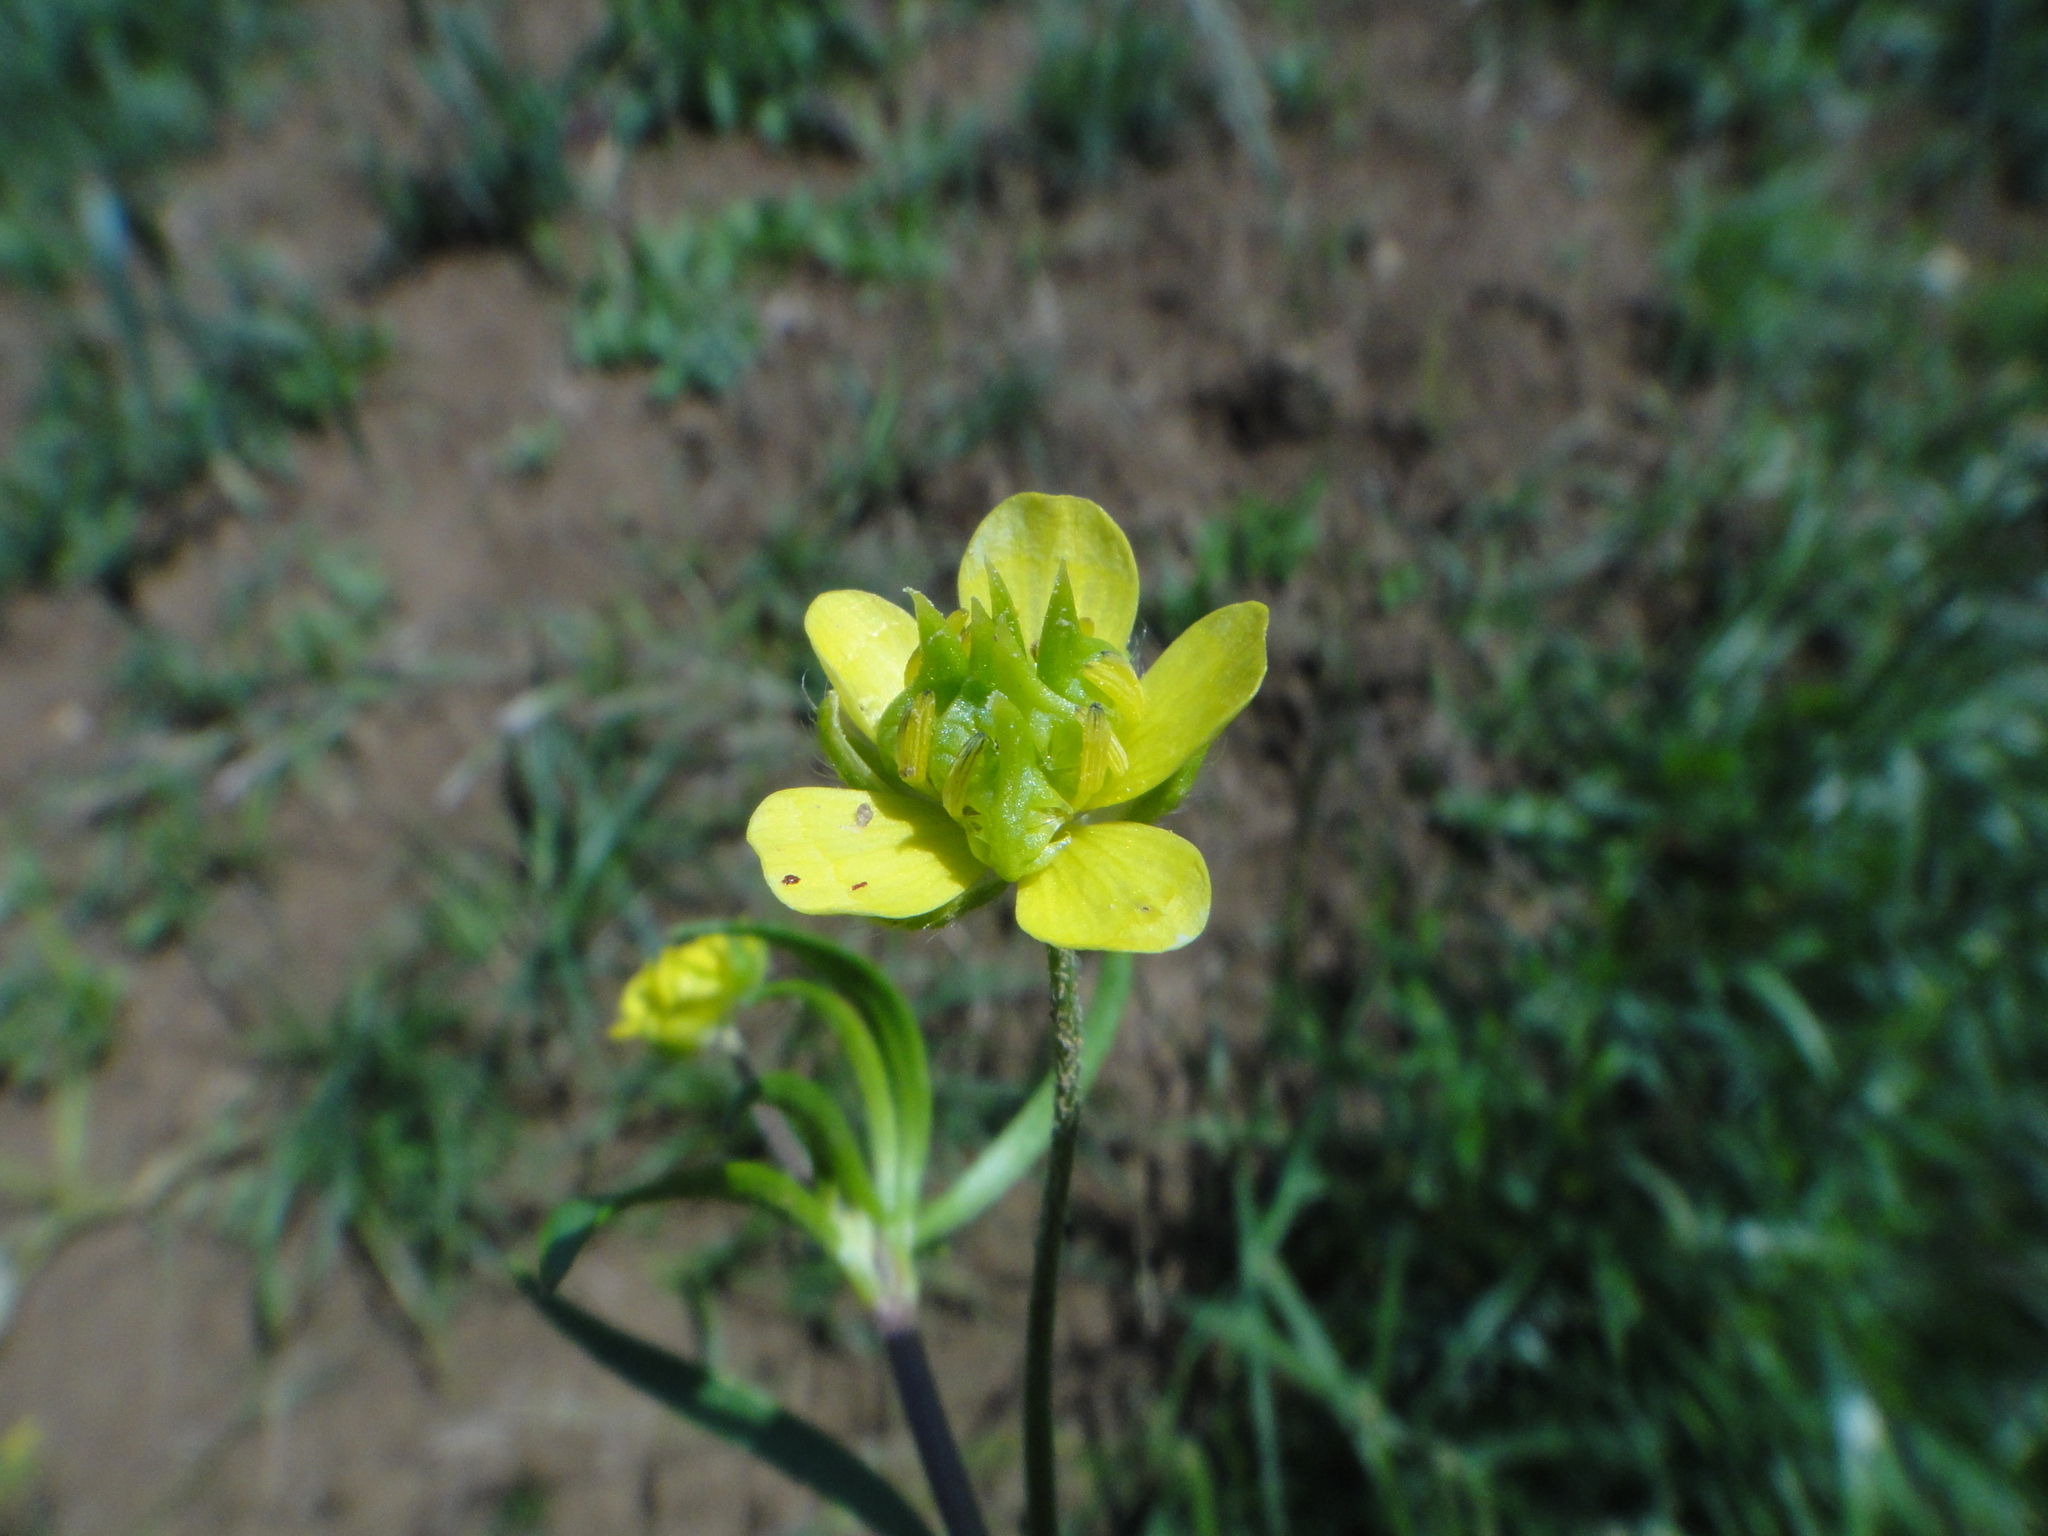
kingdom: Plantae
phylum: Tracheophyta
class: Magnoliopsida
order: Ranunculales
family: Ranunculaceae
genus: Ranunculus
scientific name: Ranunculus arvensis
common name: Corn buttercup
